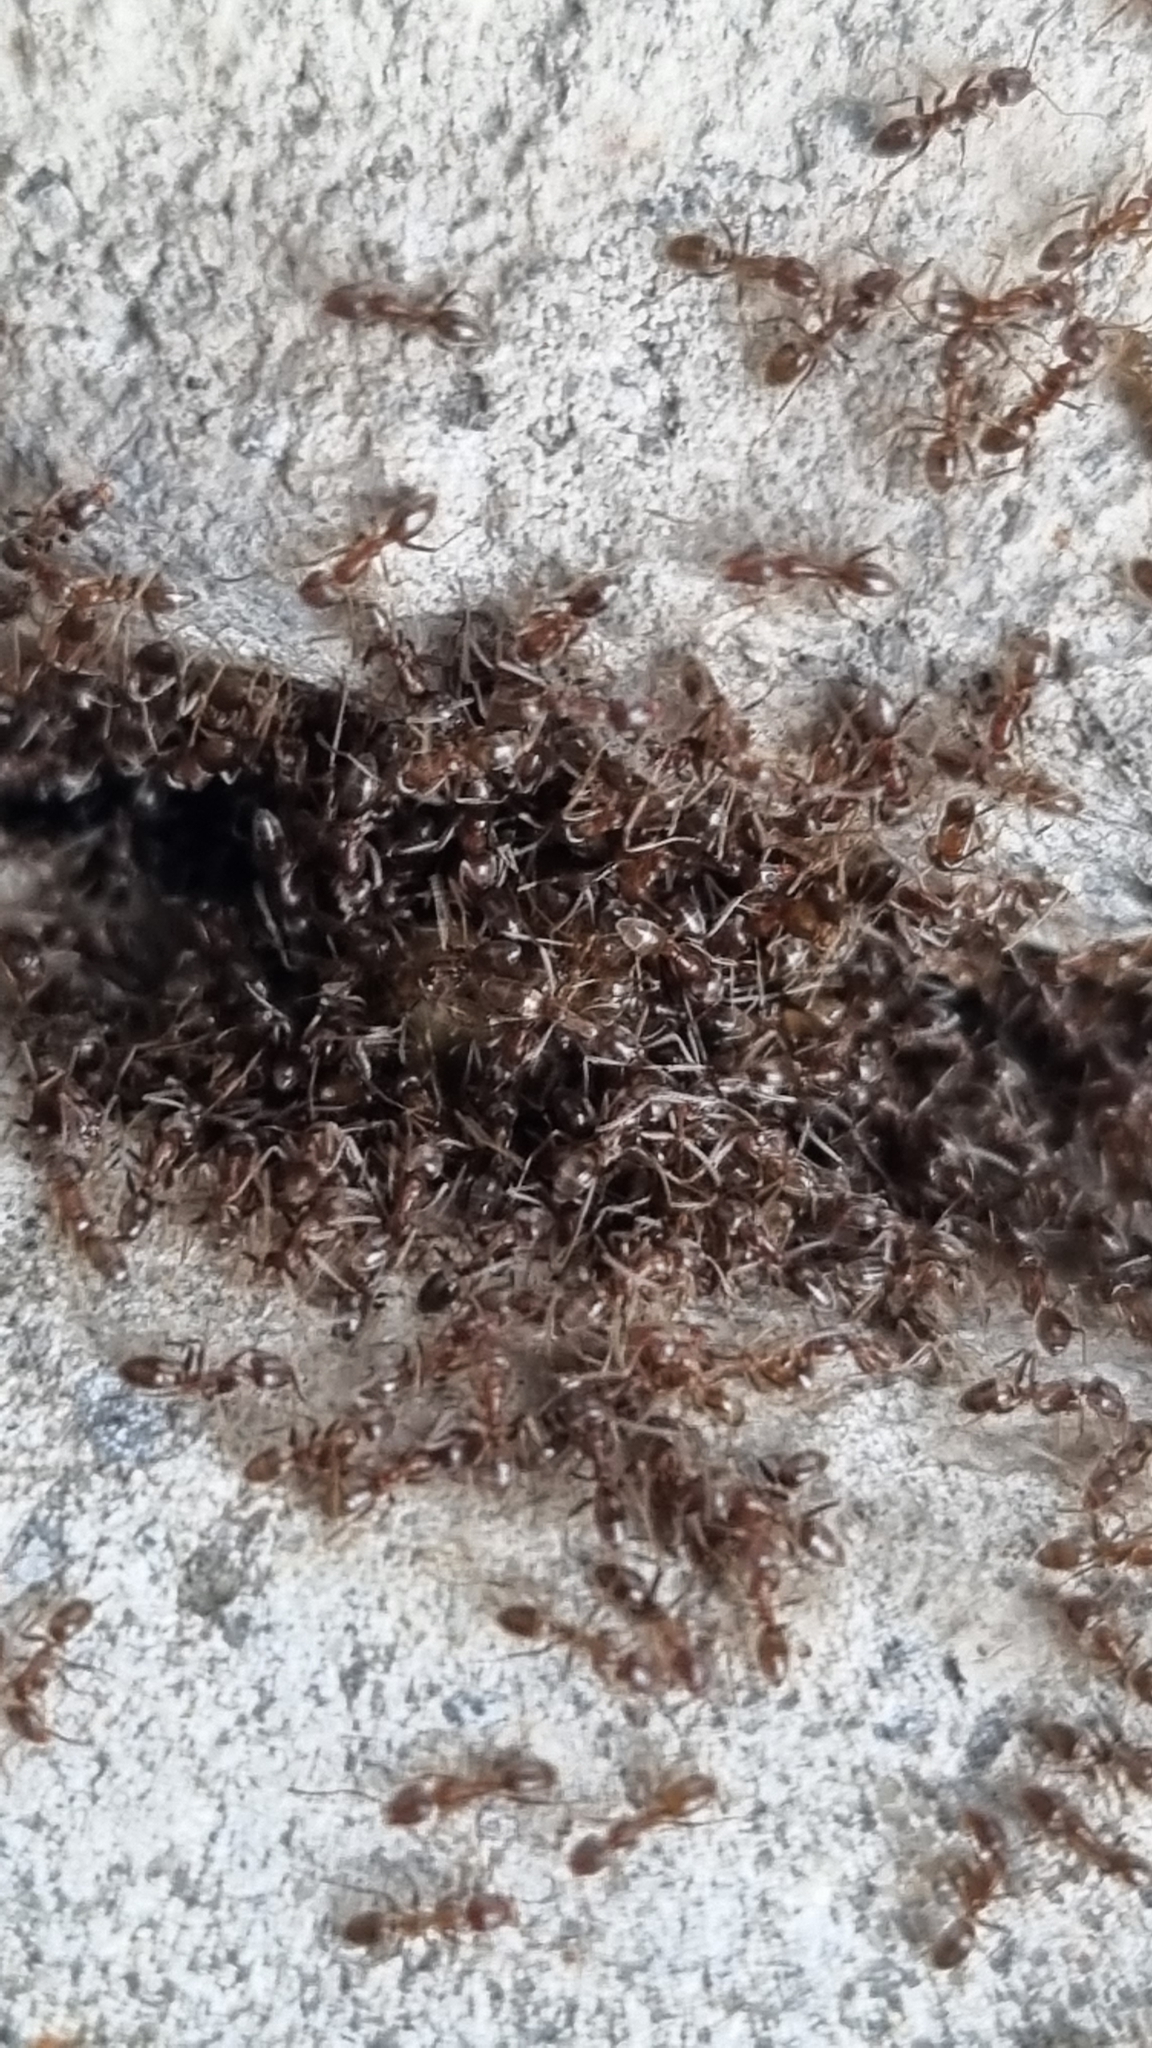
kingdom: Animalia
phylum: Arthropoda
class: Insecta
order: Hymenoptera
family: Formicidae
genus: Linepithema
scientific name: Linepithema humile
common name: Argentine ant
